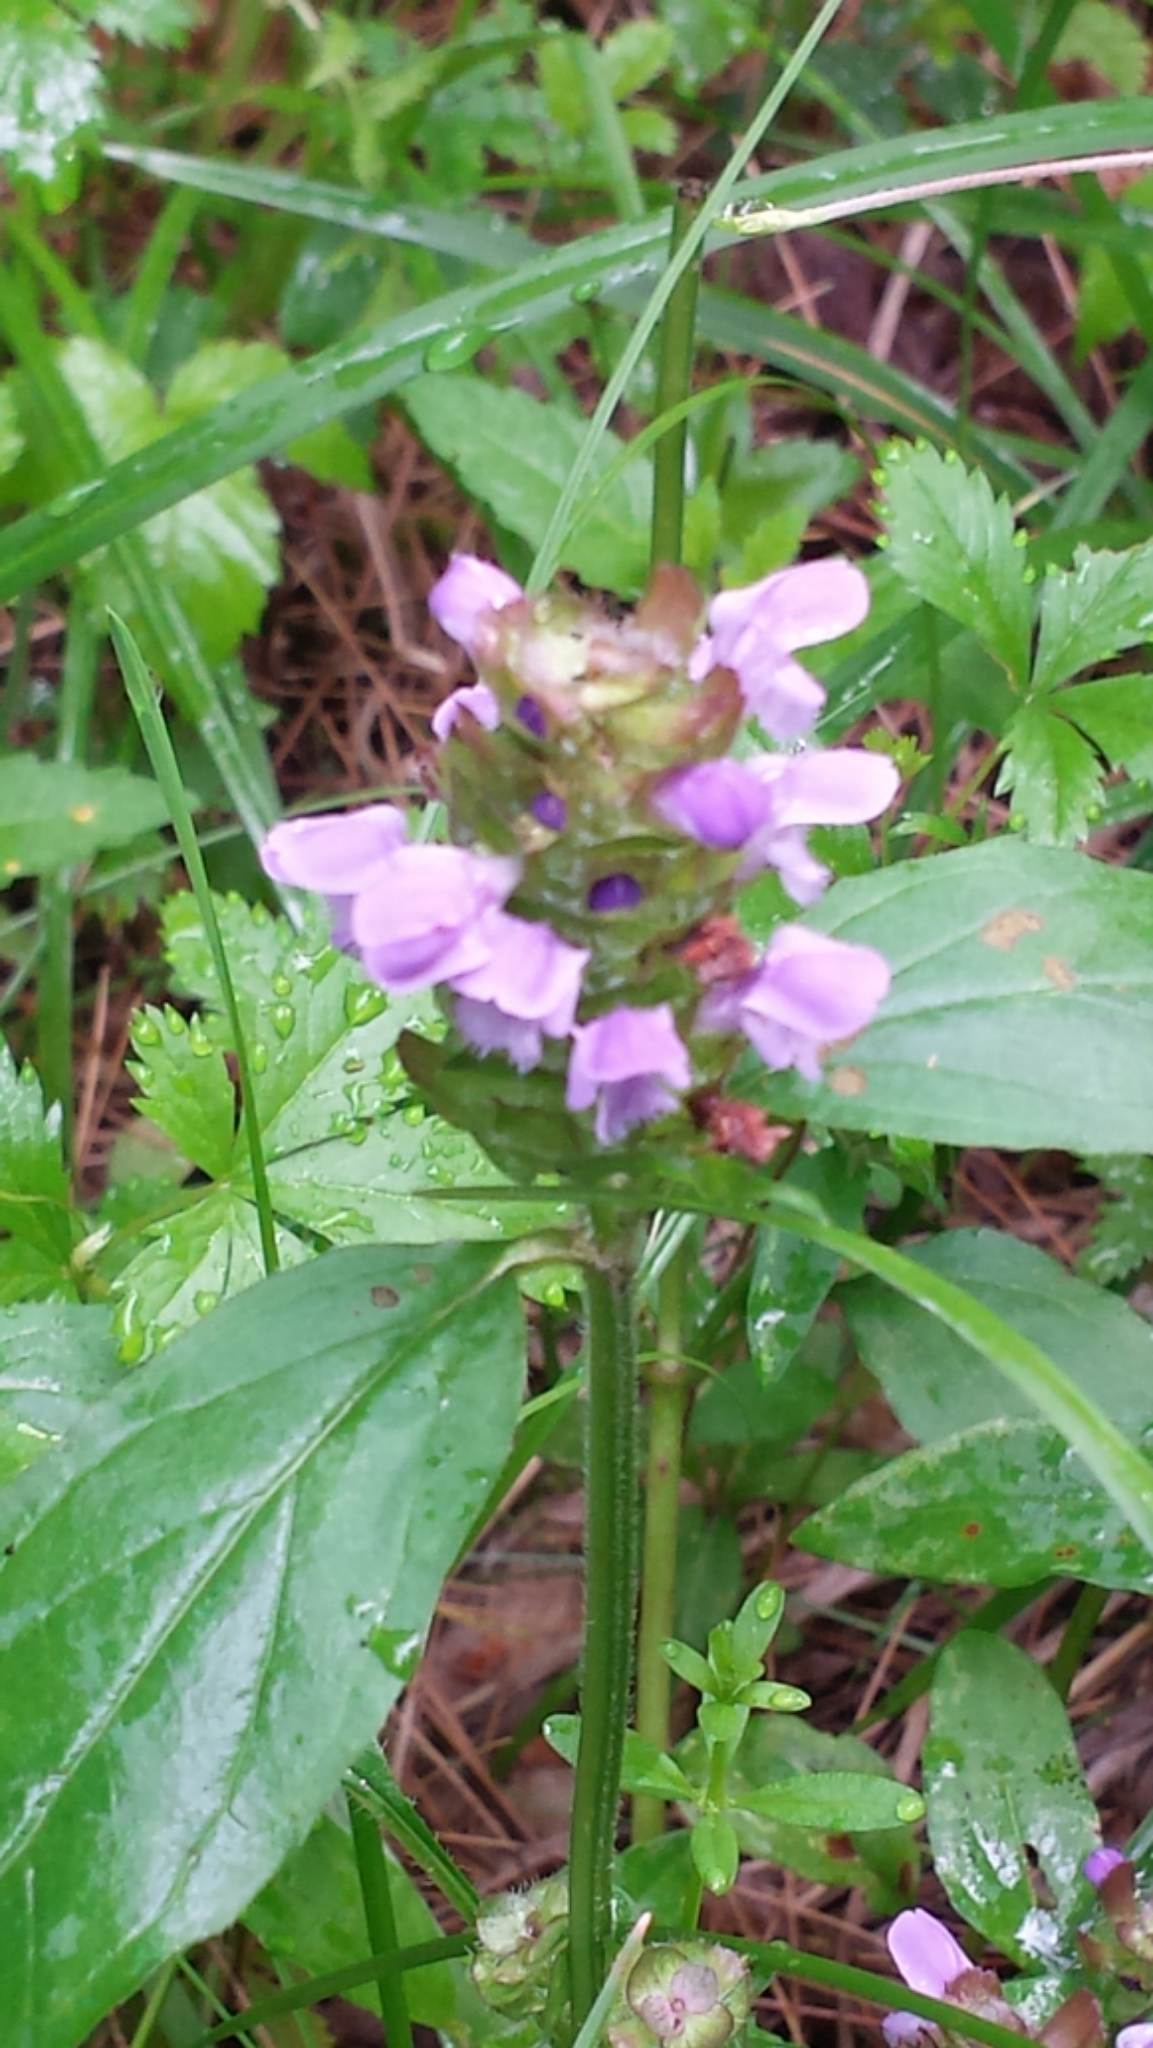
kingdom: Plantae
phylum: Tracheophyta
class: Magnoliopsida
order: Lamiales
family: Lamiaceae
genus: Prunella
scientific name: Prunella vulgaris
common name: Heal-all
